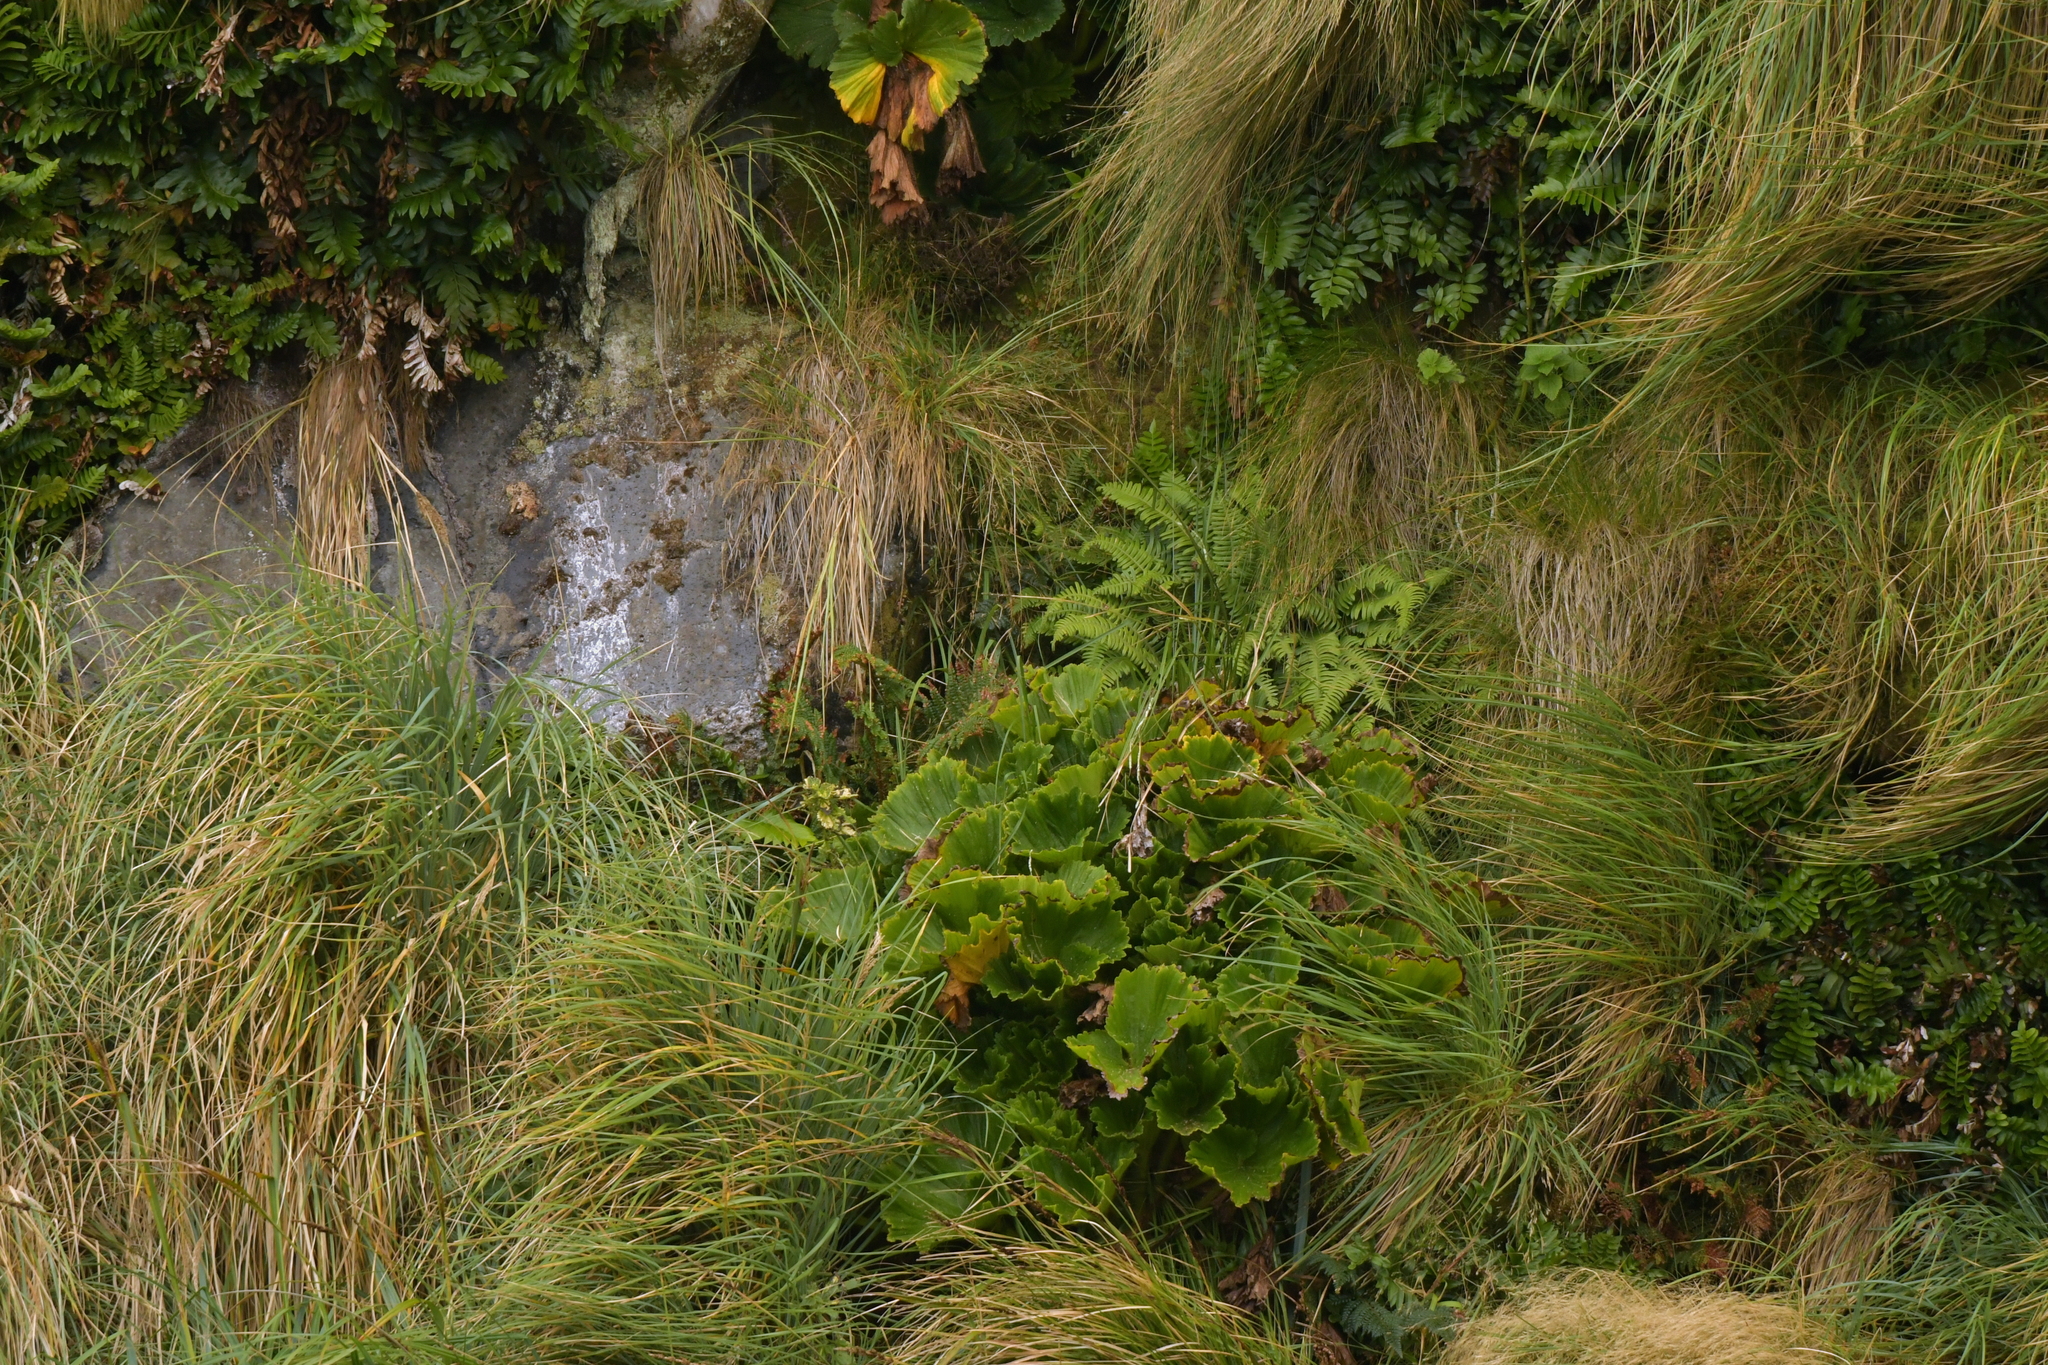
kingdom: Plantae
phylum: Tracheophyta
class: Magnoliopsida
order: Apiales
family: Apiaceae
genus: Azorella
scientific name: Azorella polaris
